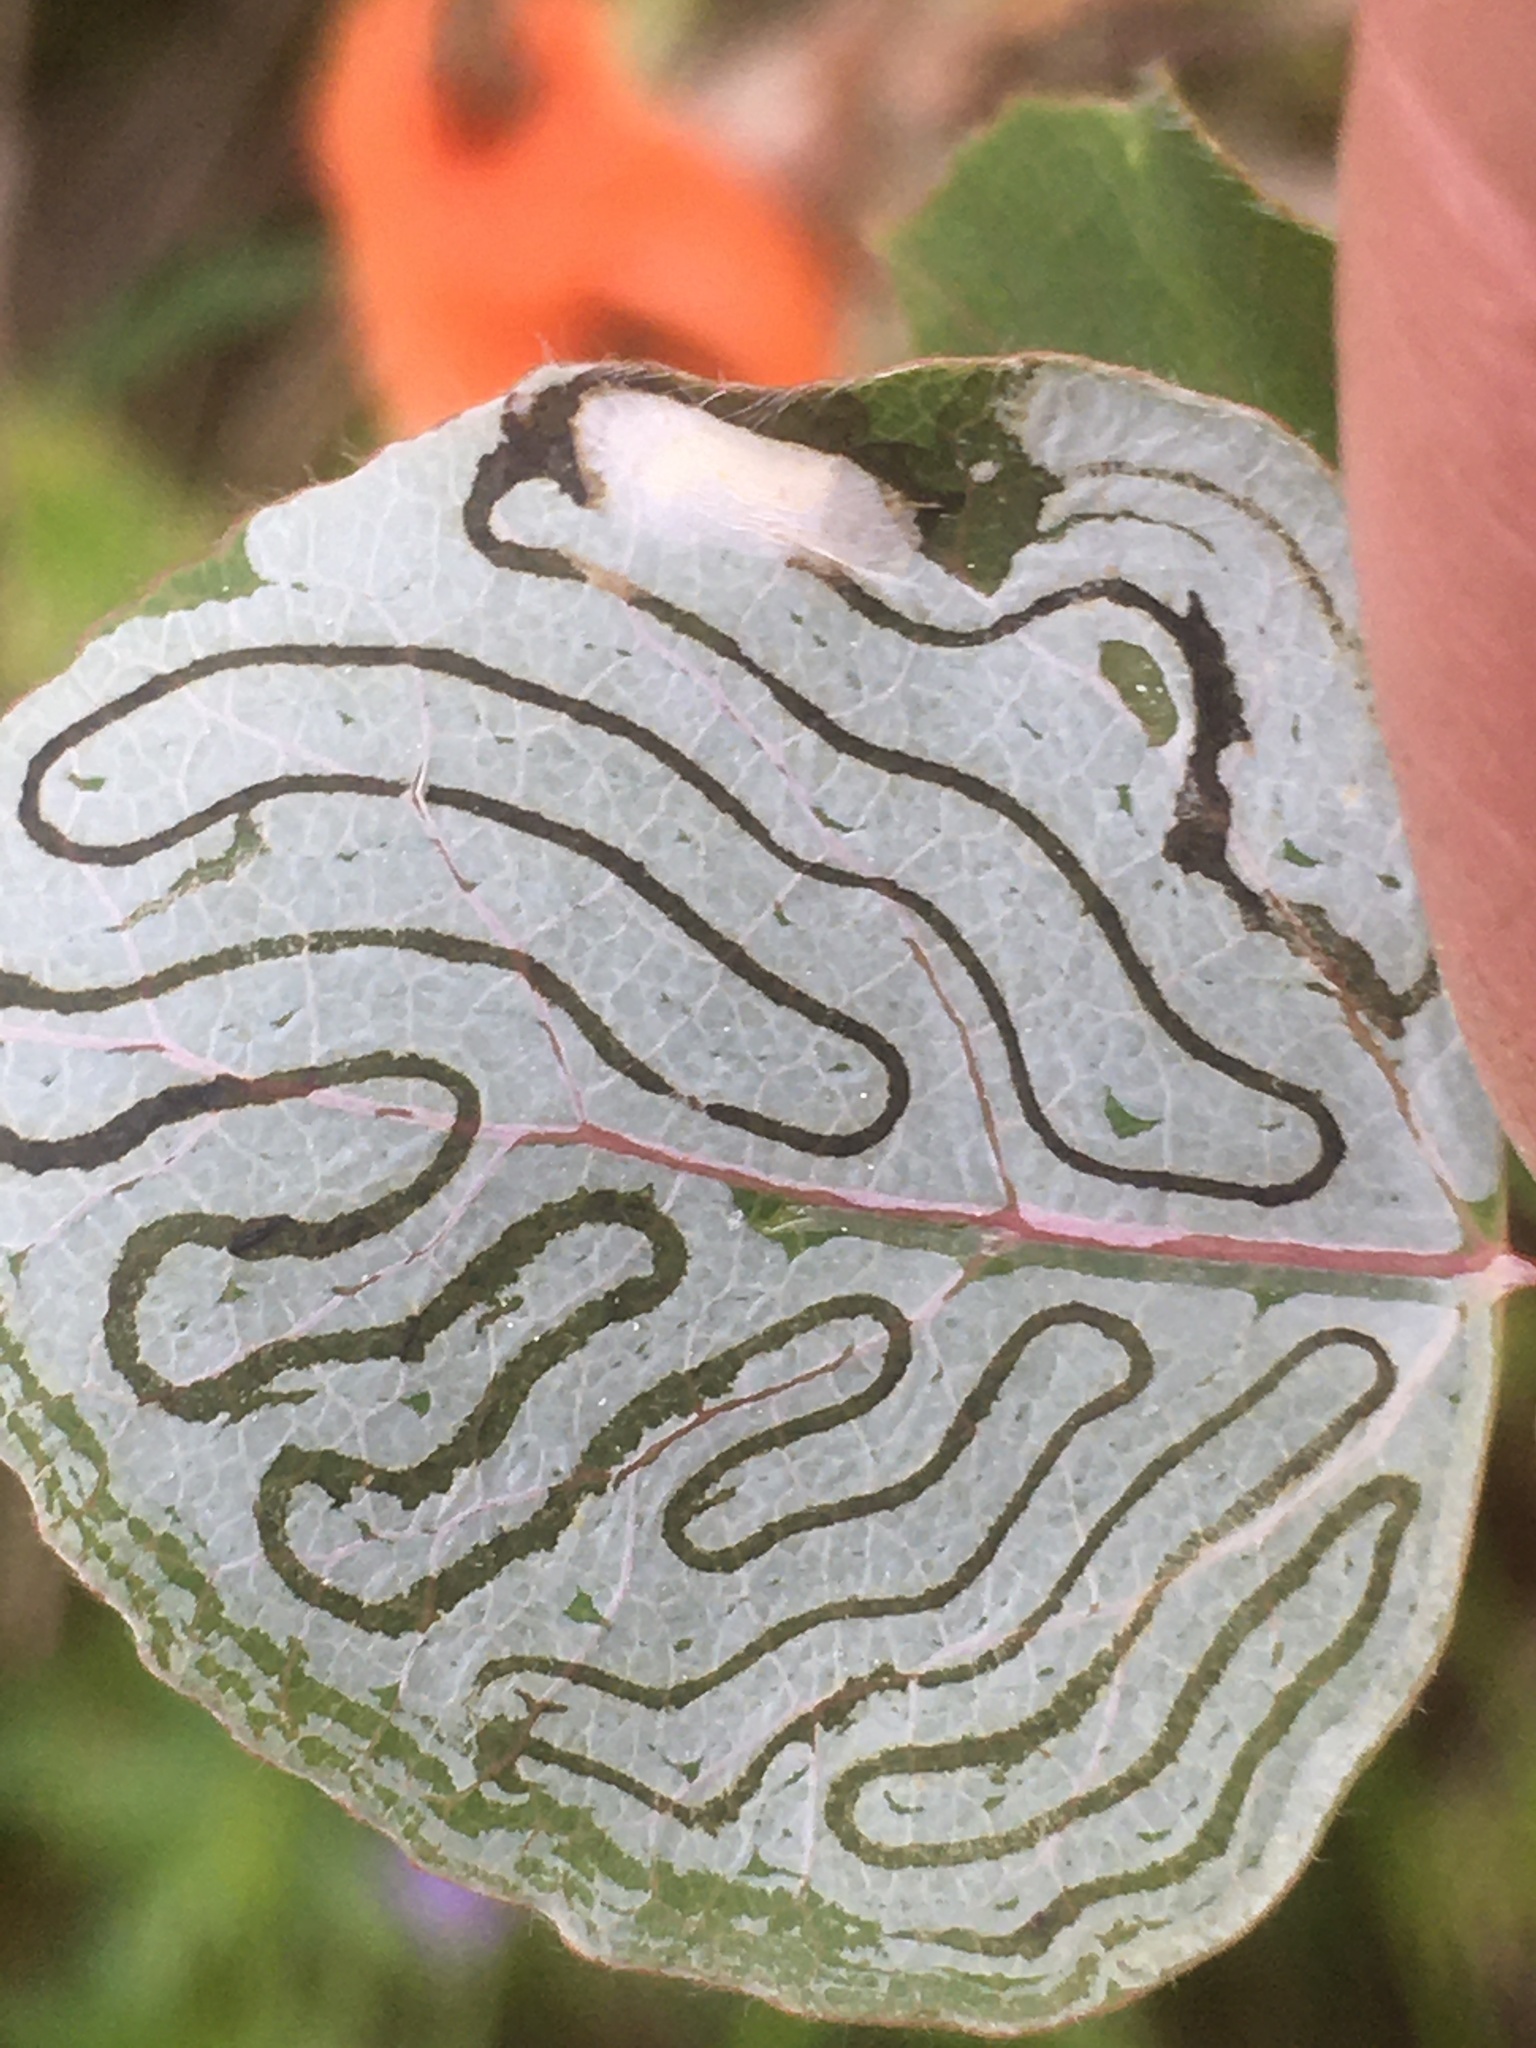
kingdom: Animalia
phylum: Arthropoda
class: Insecta
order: Lepidoptera
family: Gracillariidae
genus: Phyllocnistis
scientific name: Phyllocnistis populiella
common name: Aspen serpentine leafminer moth
